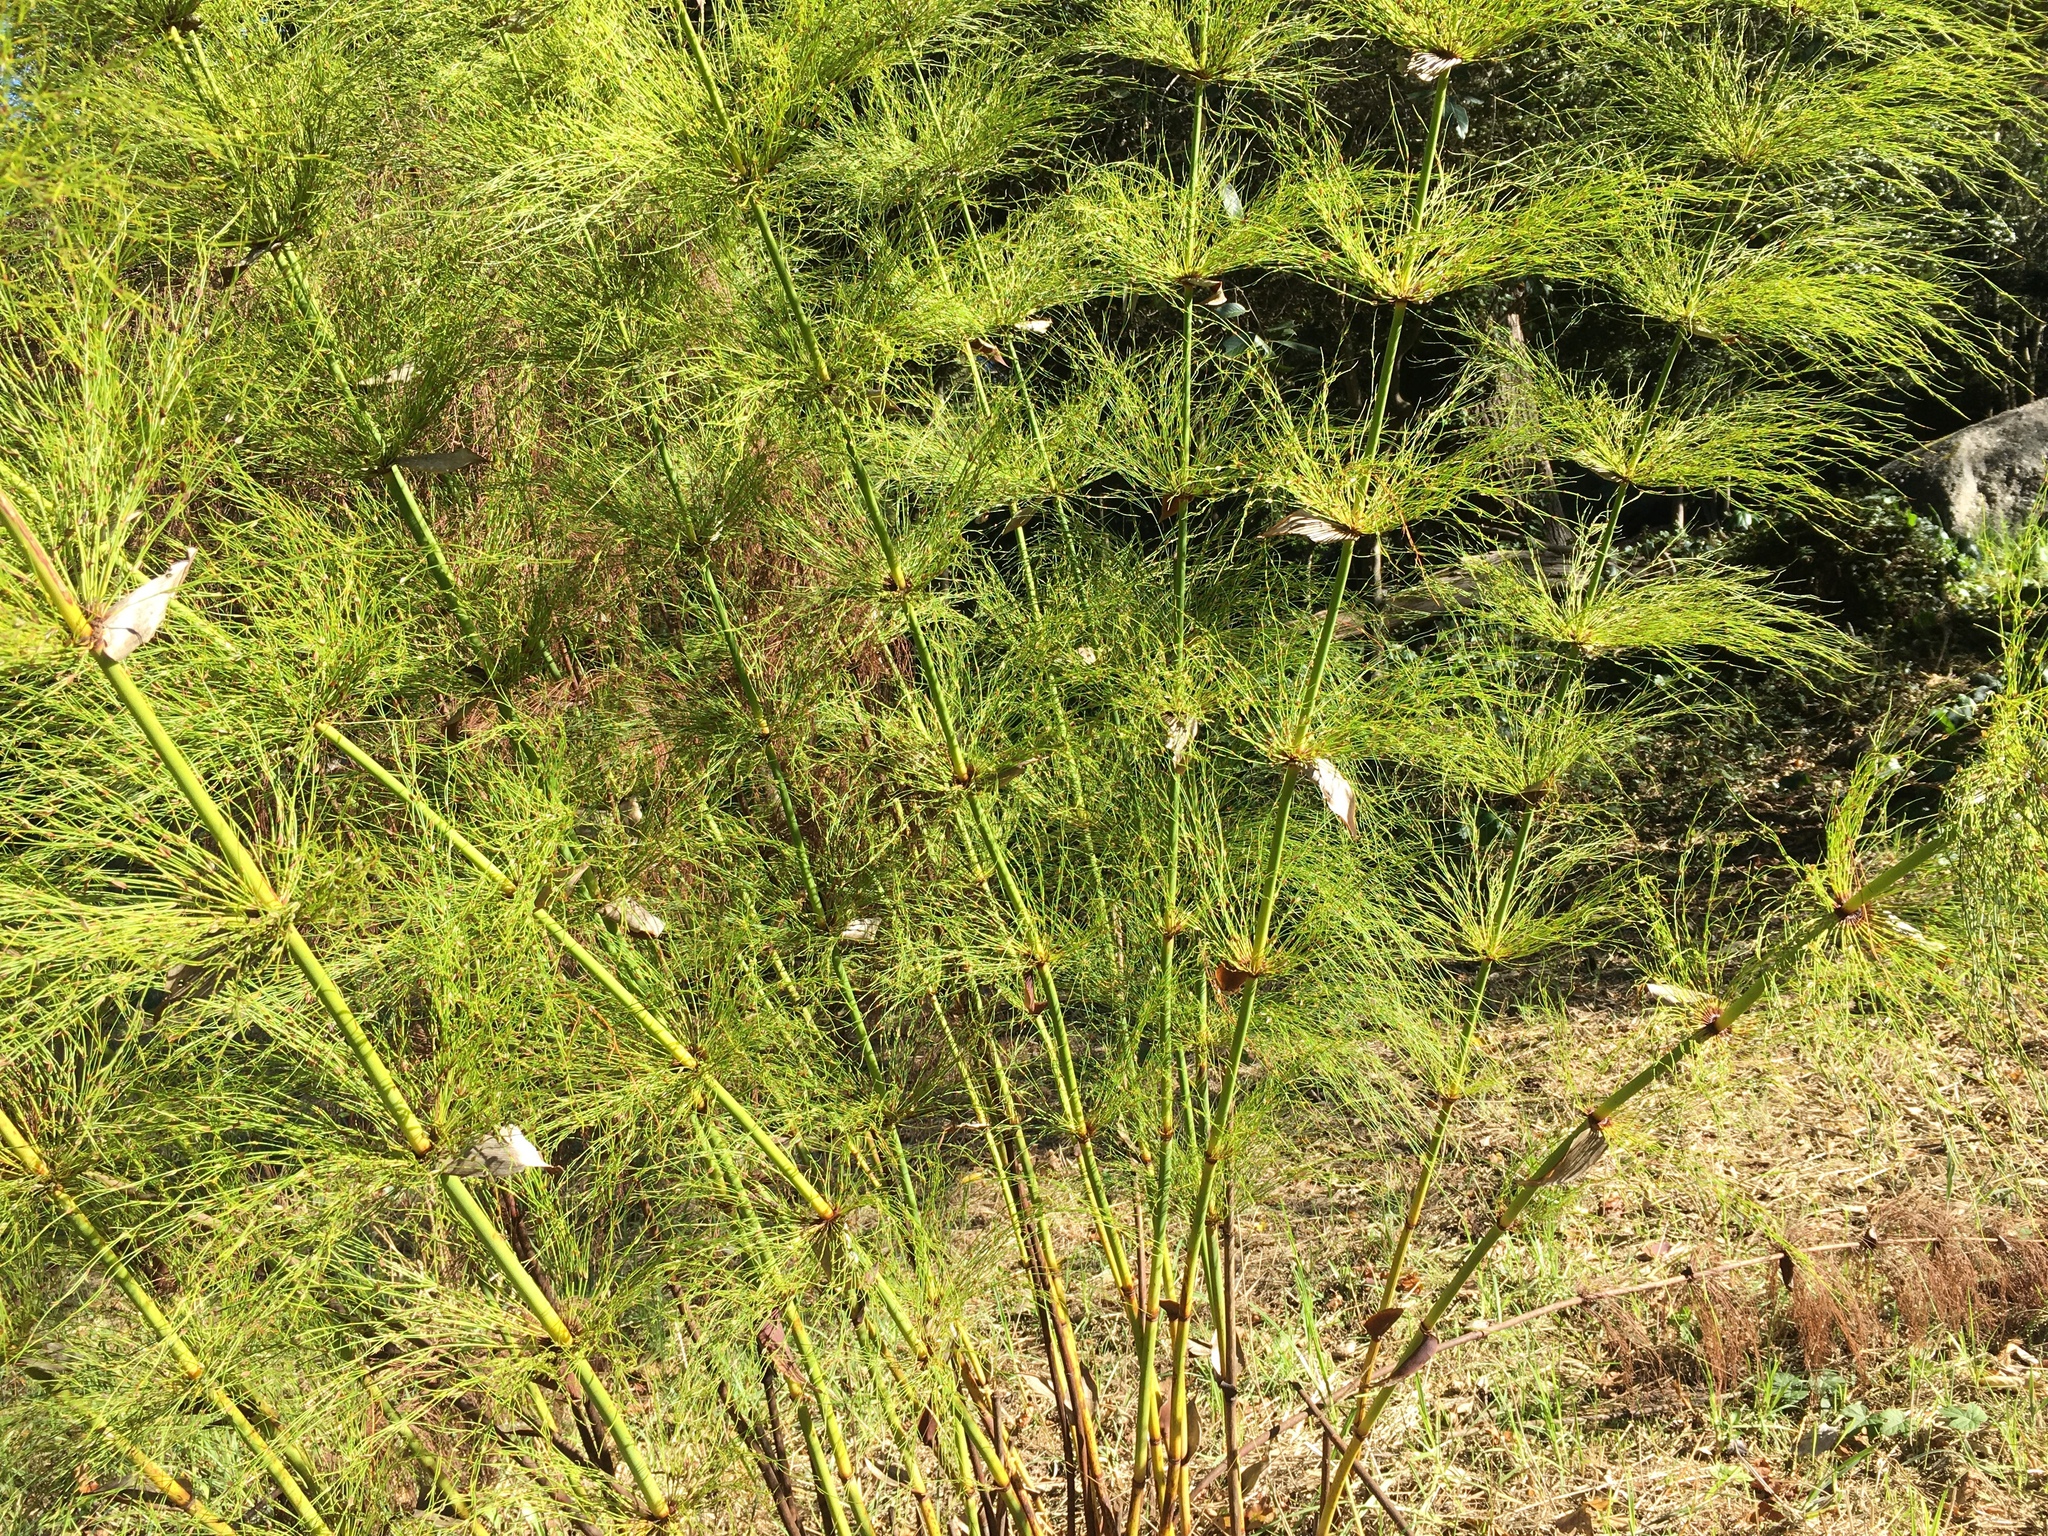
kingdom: Plantae
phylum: Tracheophyta
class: Liliopsida
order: Poales
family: Restionaceae
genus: Elegia
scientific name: Elegia capensis
